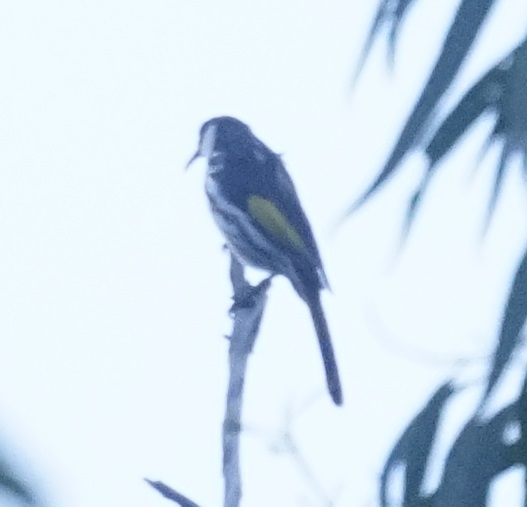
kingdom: Animalia
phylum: Chordata
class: Aves
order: Passeriformes
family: Meliphagidae
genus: Phylidonyris
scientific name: Phylidonyris niger
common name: White-cheeked honeyeater
